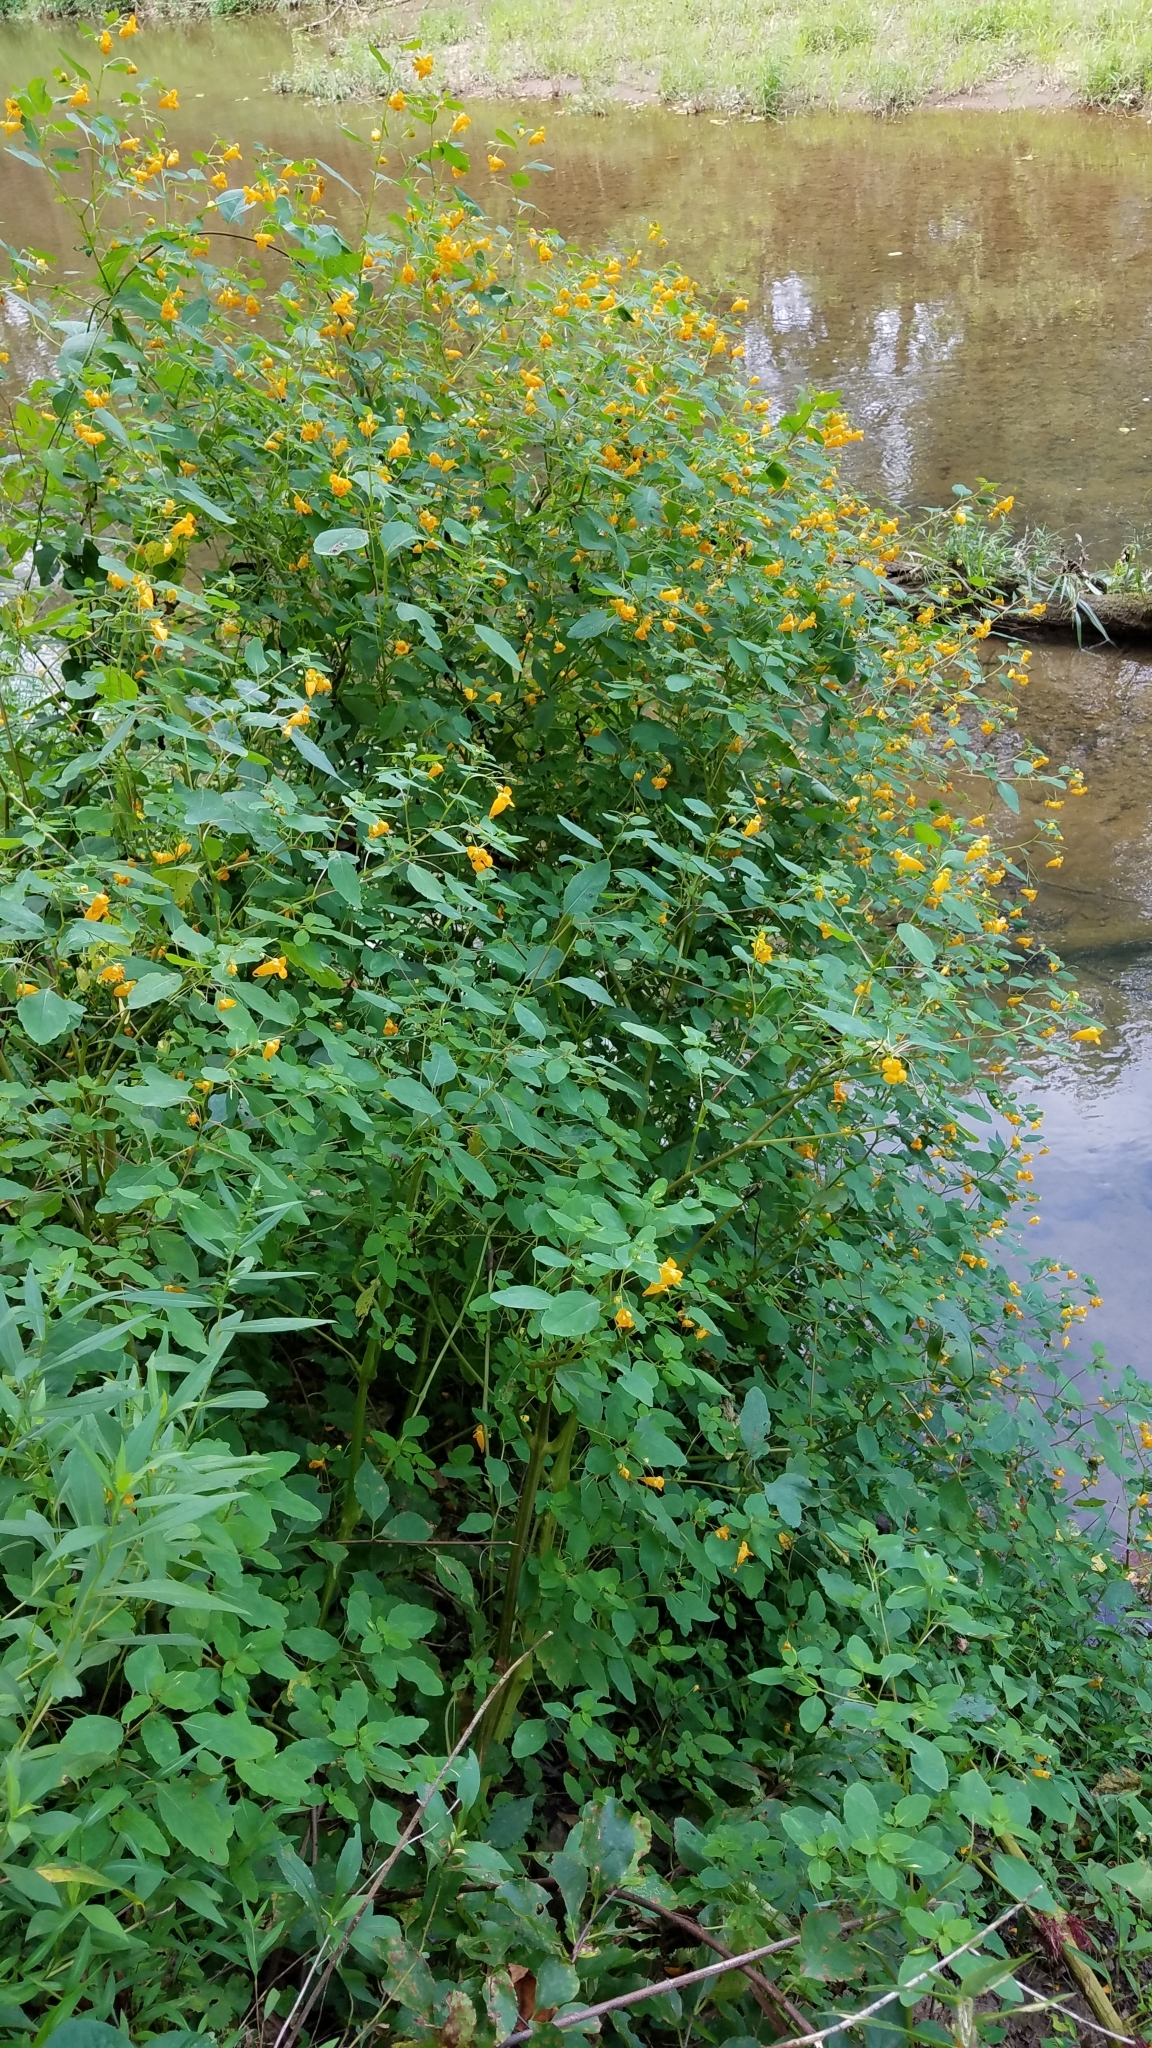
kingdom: Plantae
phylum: Tracheophyta
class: Magnoliopsida
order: Ericales
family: Balsaminaceae
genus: Impatiens
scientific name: Impatiens capensis
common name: Orange balsam
